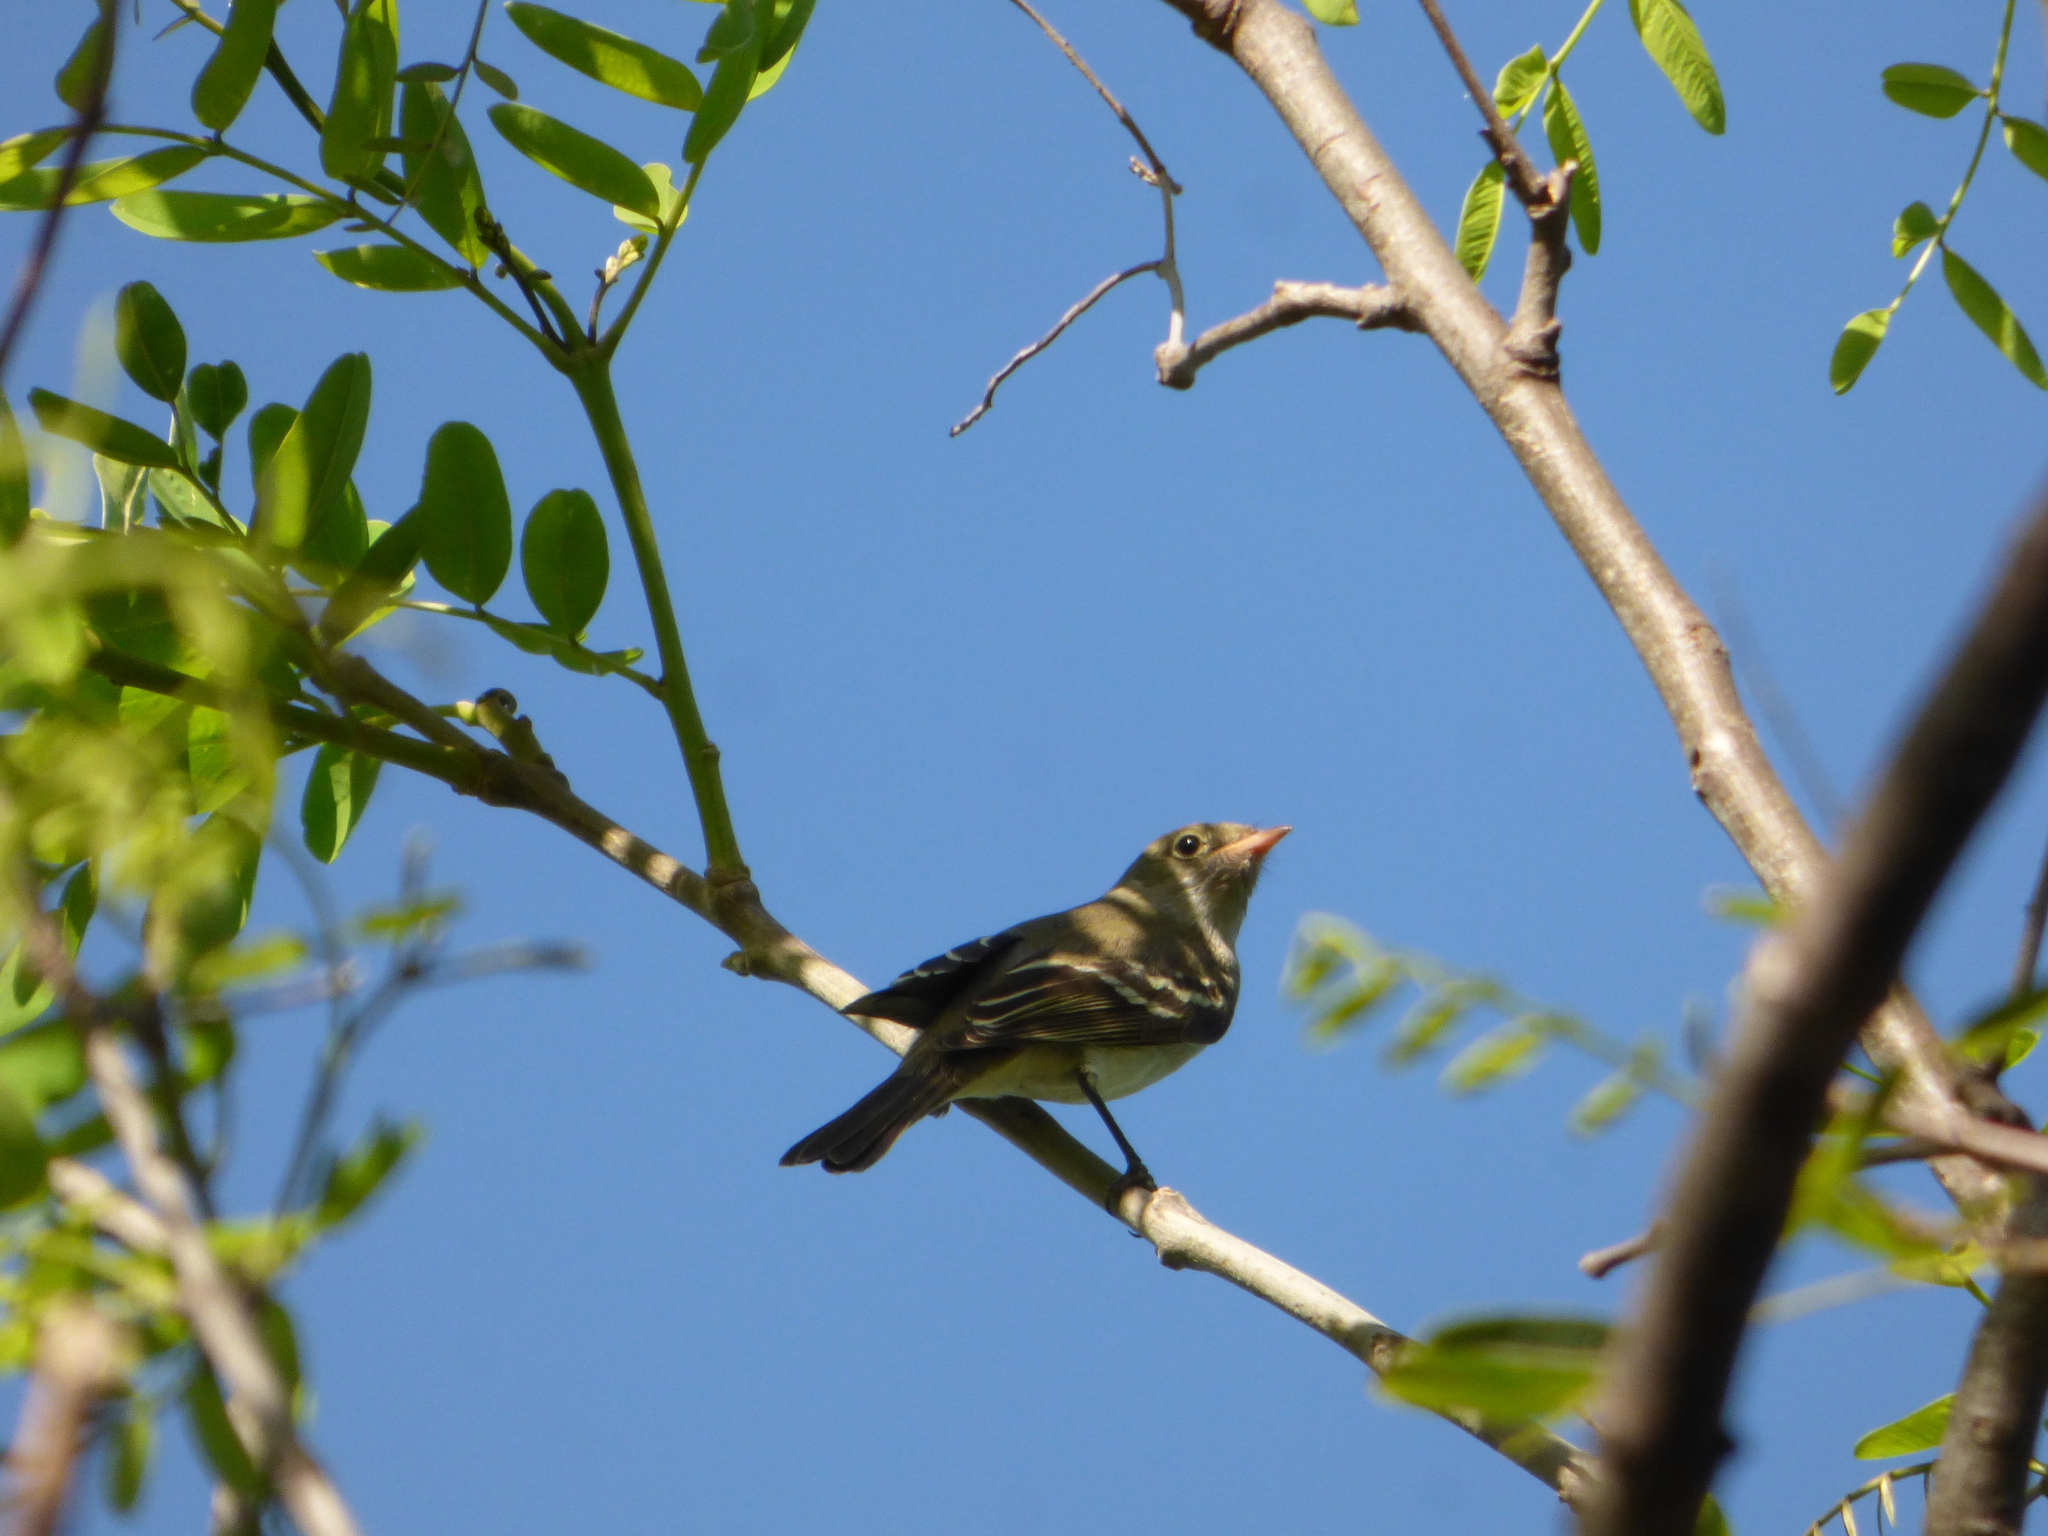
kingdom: Animalia
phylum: Chordata
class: Aves
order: Passeriformes
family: Tyrannidae
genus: Elaenia
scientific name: Elaenia parvirostris
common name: Small-billed elaenia
